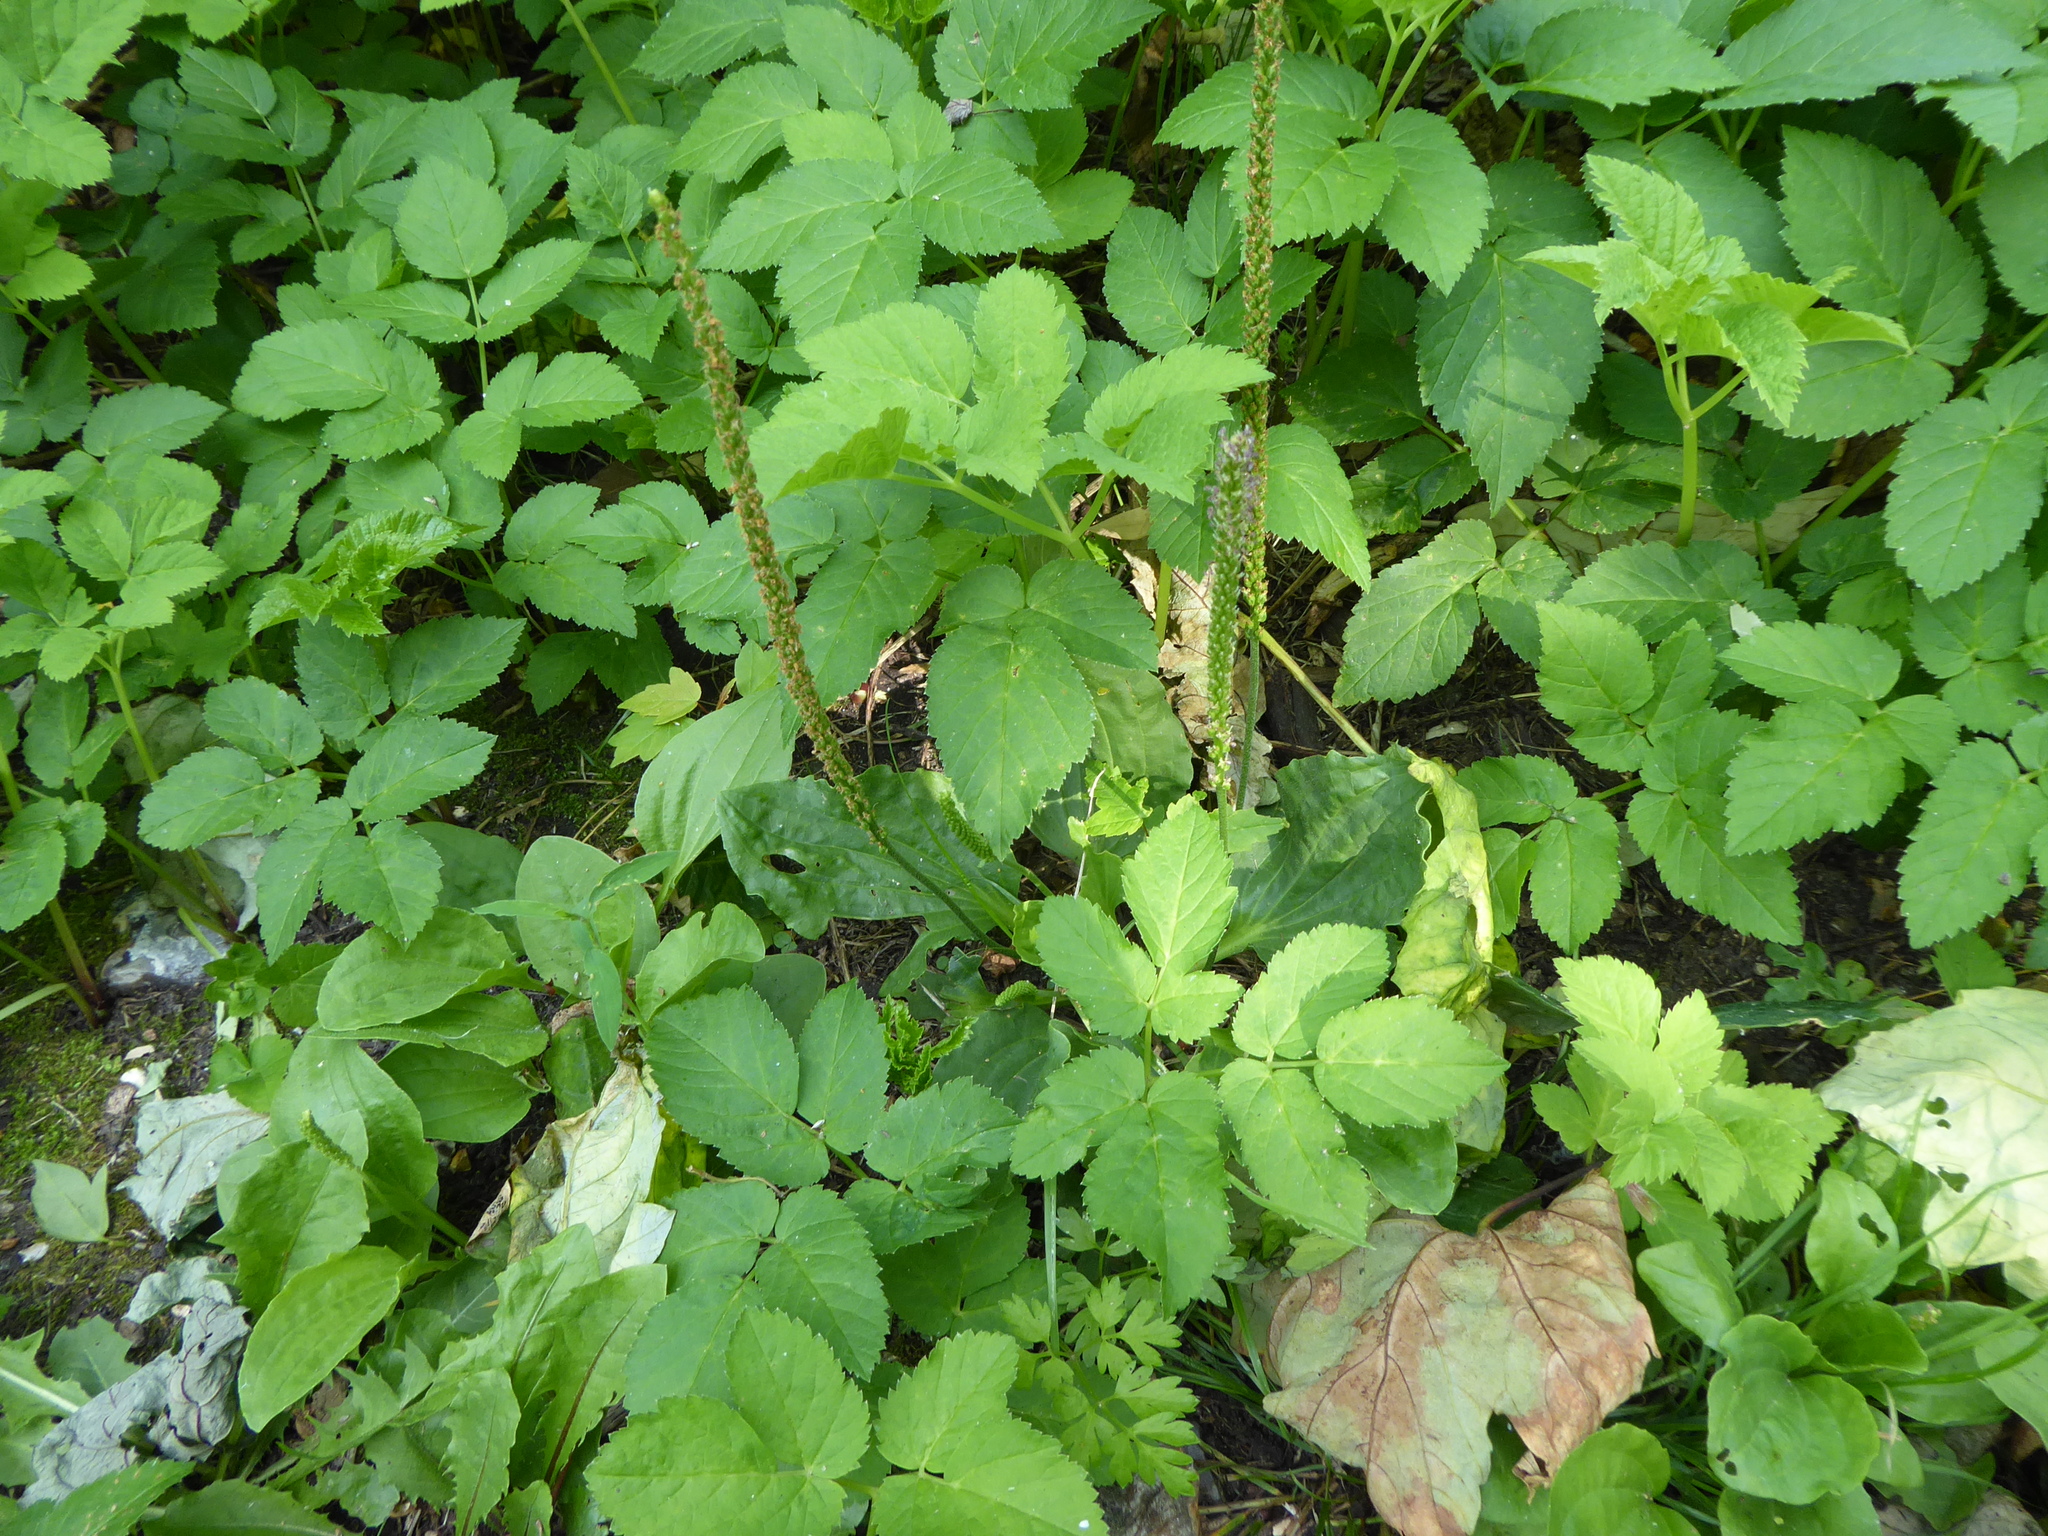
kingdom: Plantae
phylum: Tracheophyta
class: Magnoliopsida
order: Lamiales
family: Plantaginaceae
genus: Plantago
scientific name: Plantago major
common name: Common plantain
